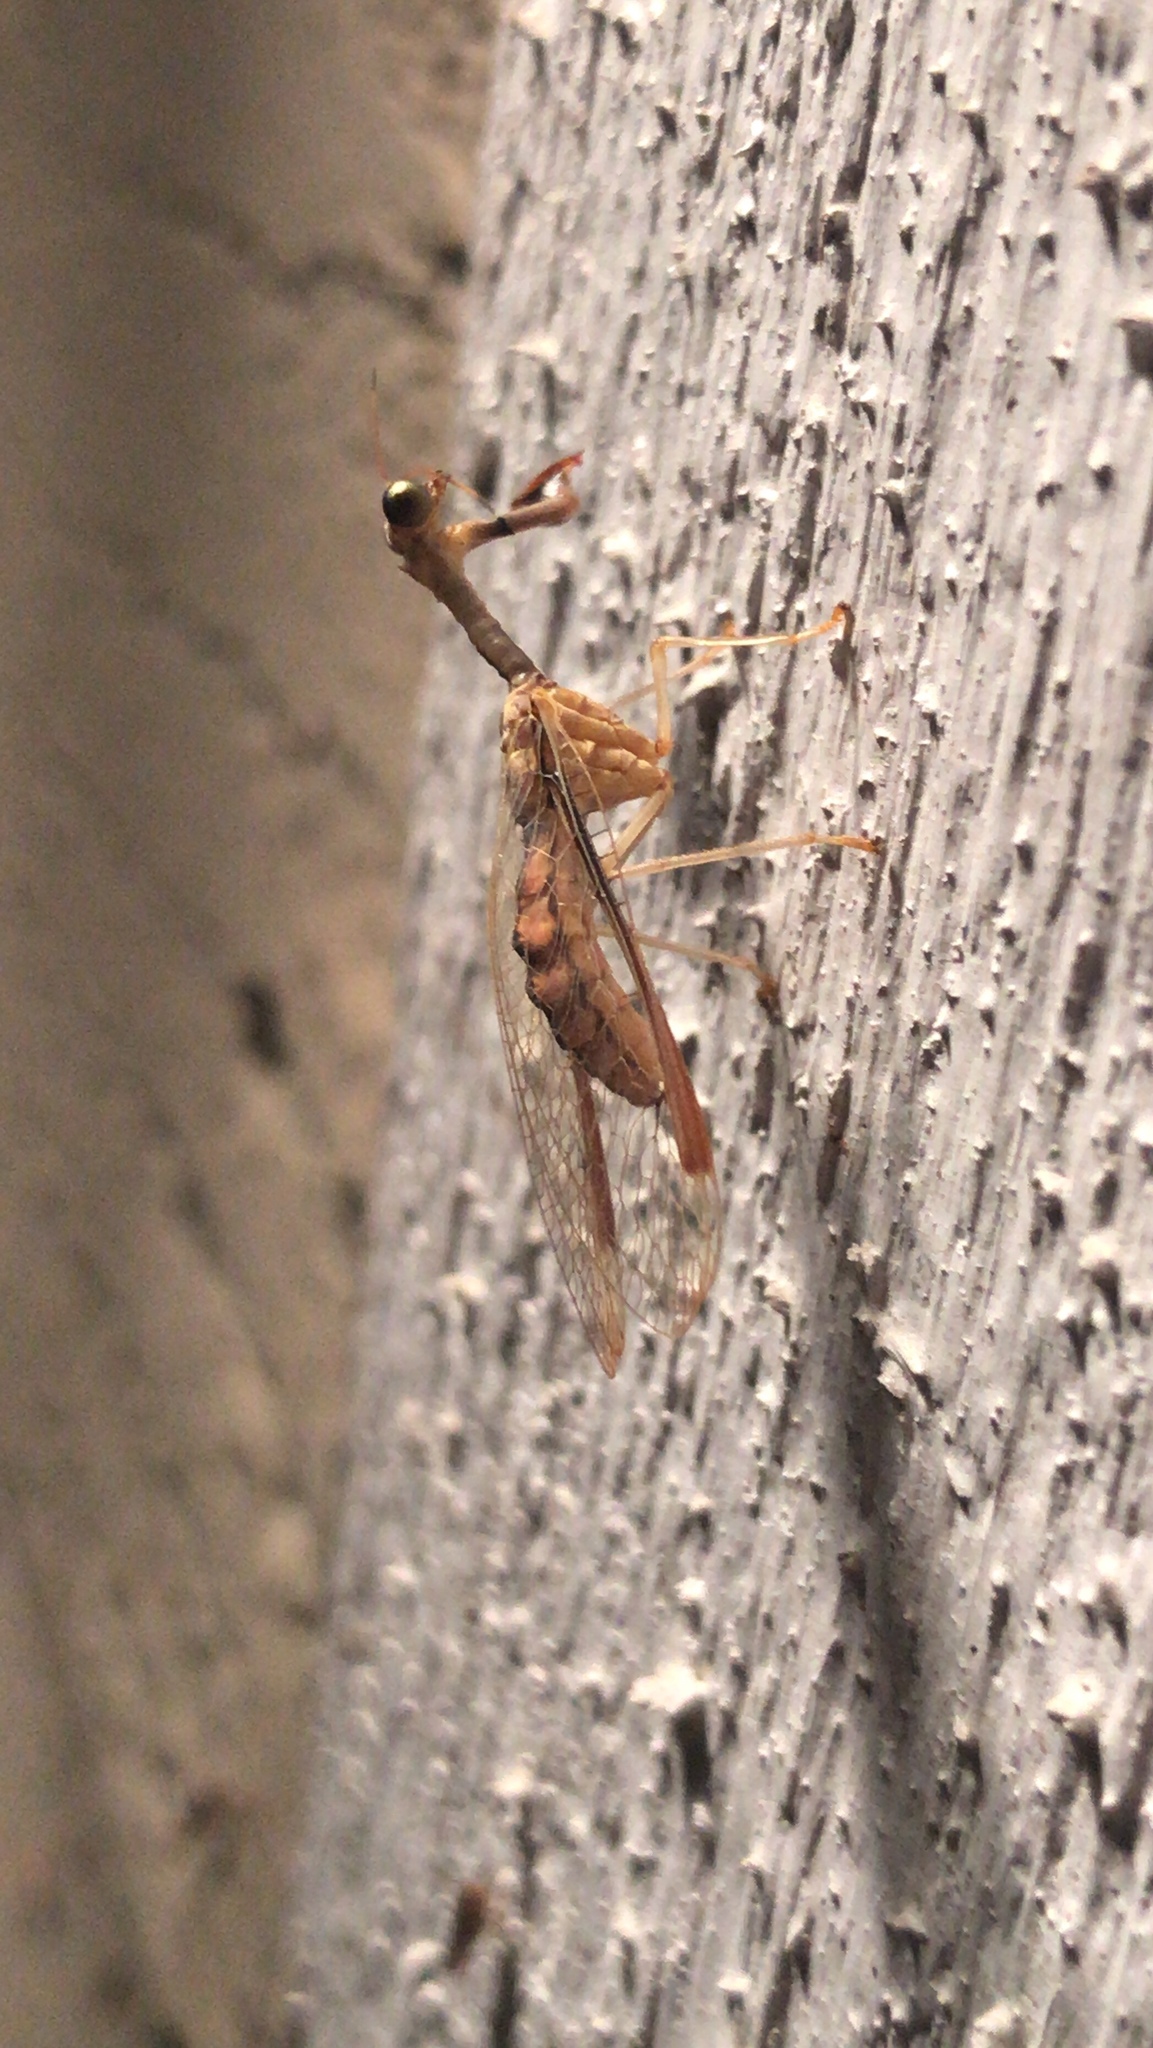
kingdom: Animalia
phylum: Arthropoda
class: Insecta
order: Neuroptera
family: Mantispidae
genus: Dicromantispa
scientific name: Dicromantispa interrupta
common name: Four-spotted mantidfly
